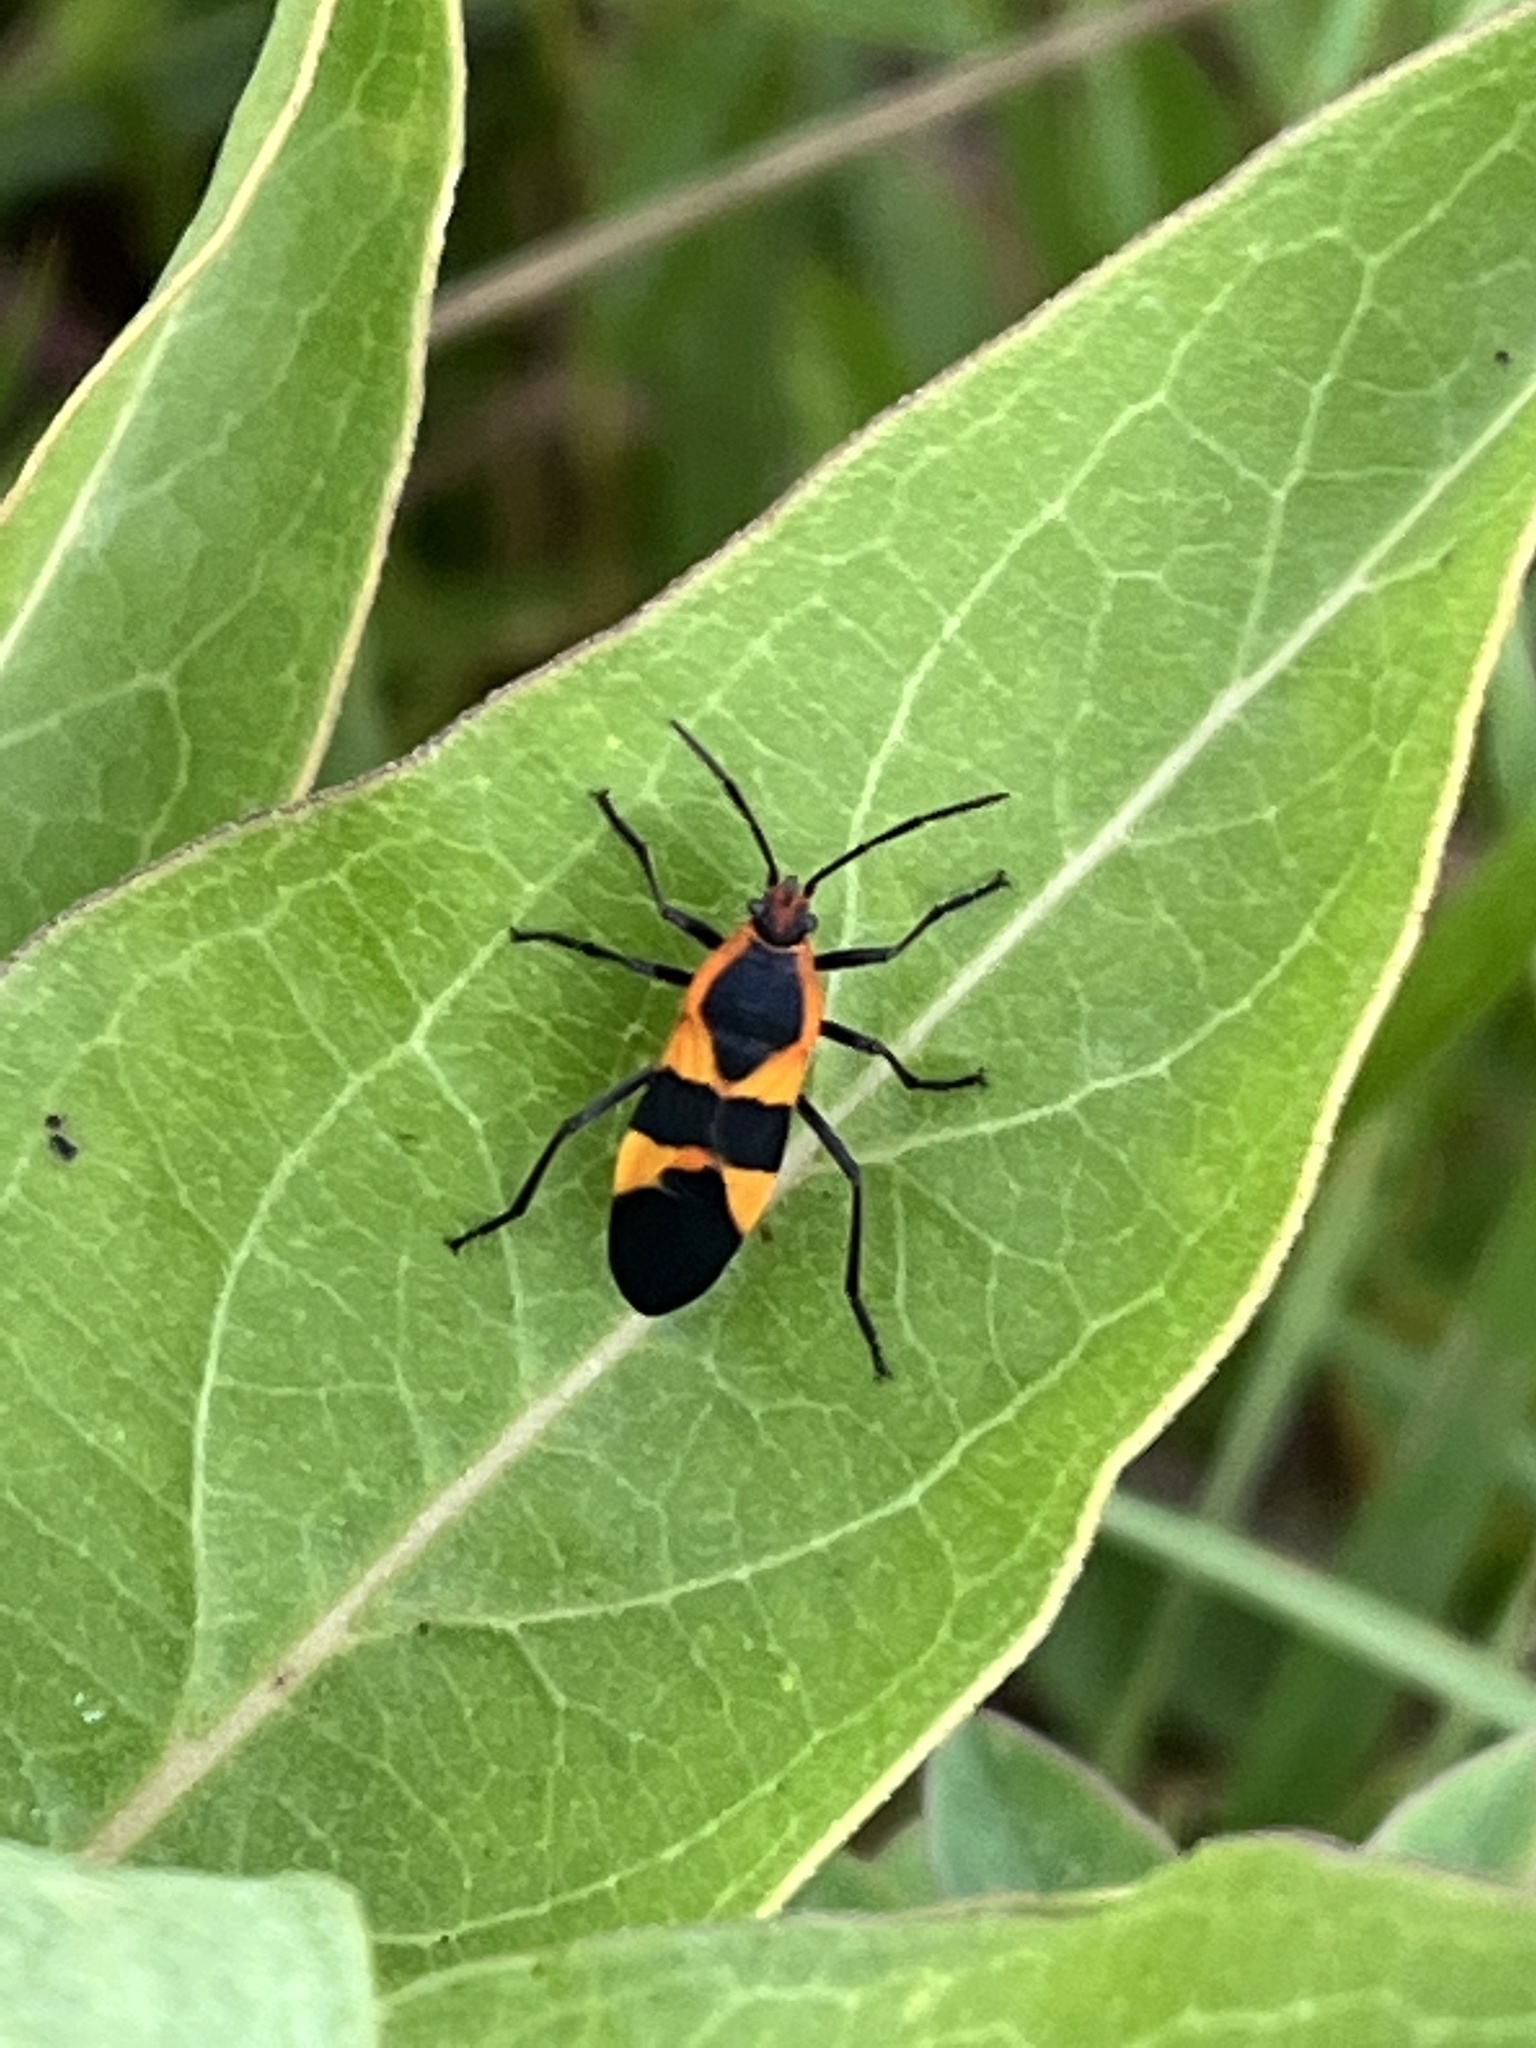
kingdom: Animalia
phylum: Arthropoda
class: Insecta
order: Hemiptera
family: Lygaeidae
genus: Oncopeltus
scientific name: Oncopeltus fasciatus
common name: Large milkweed bug
